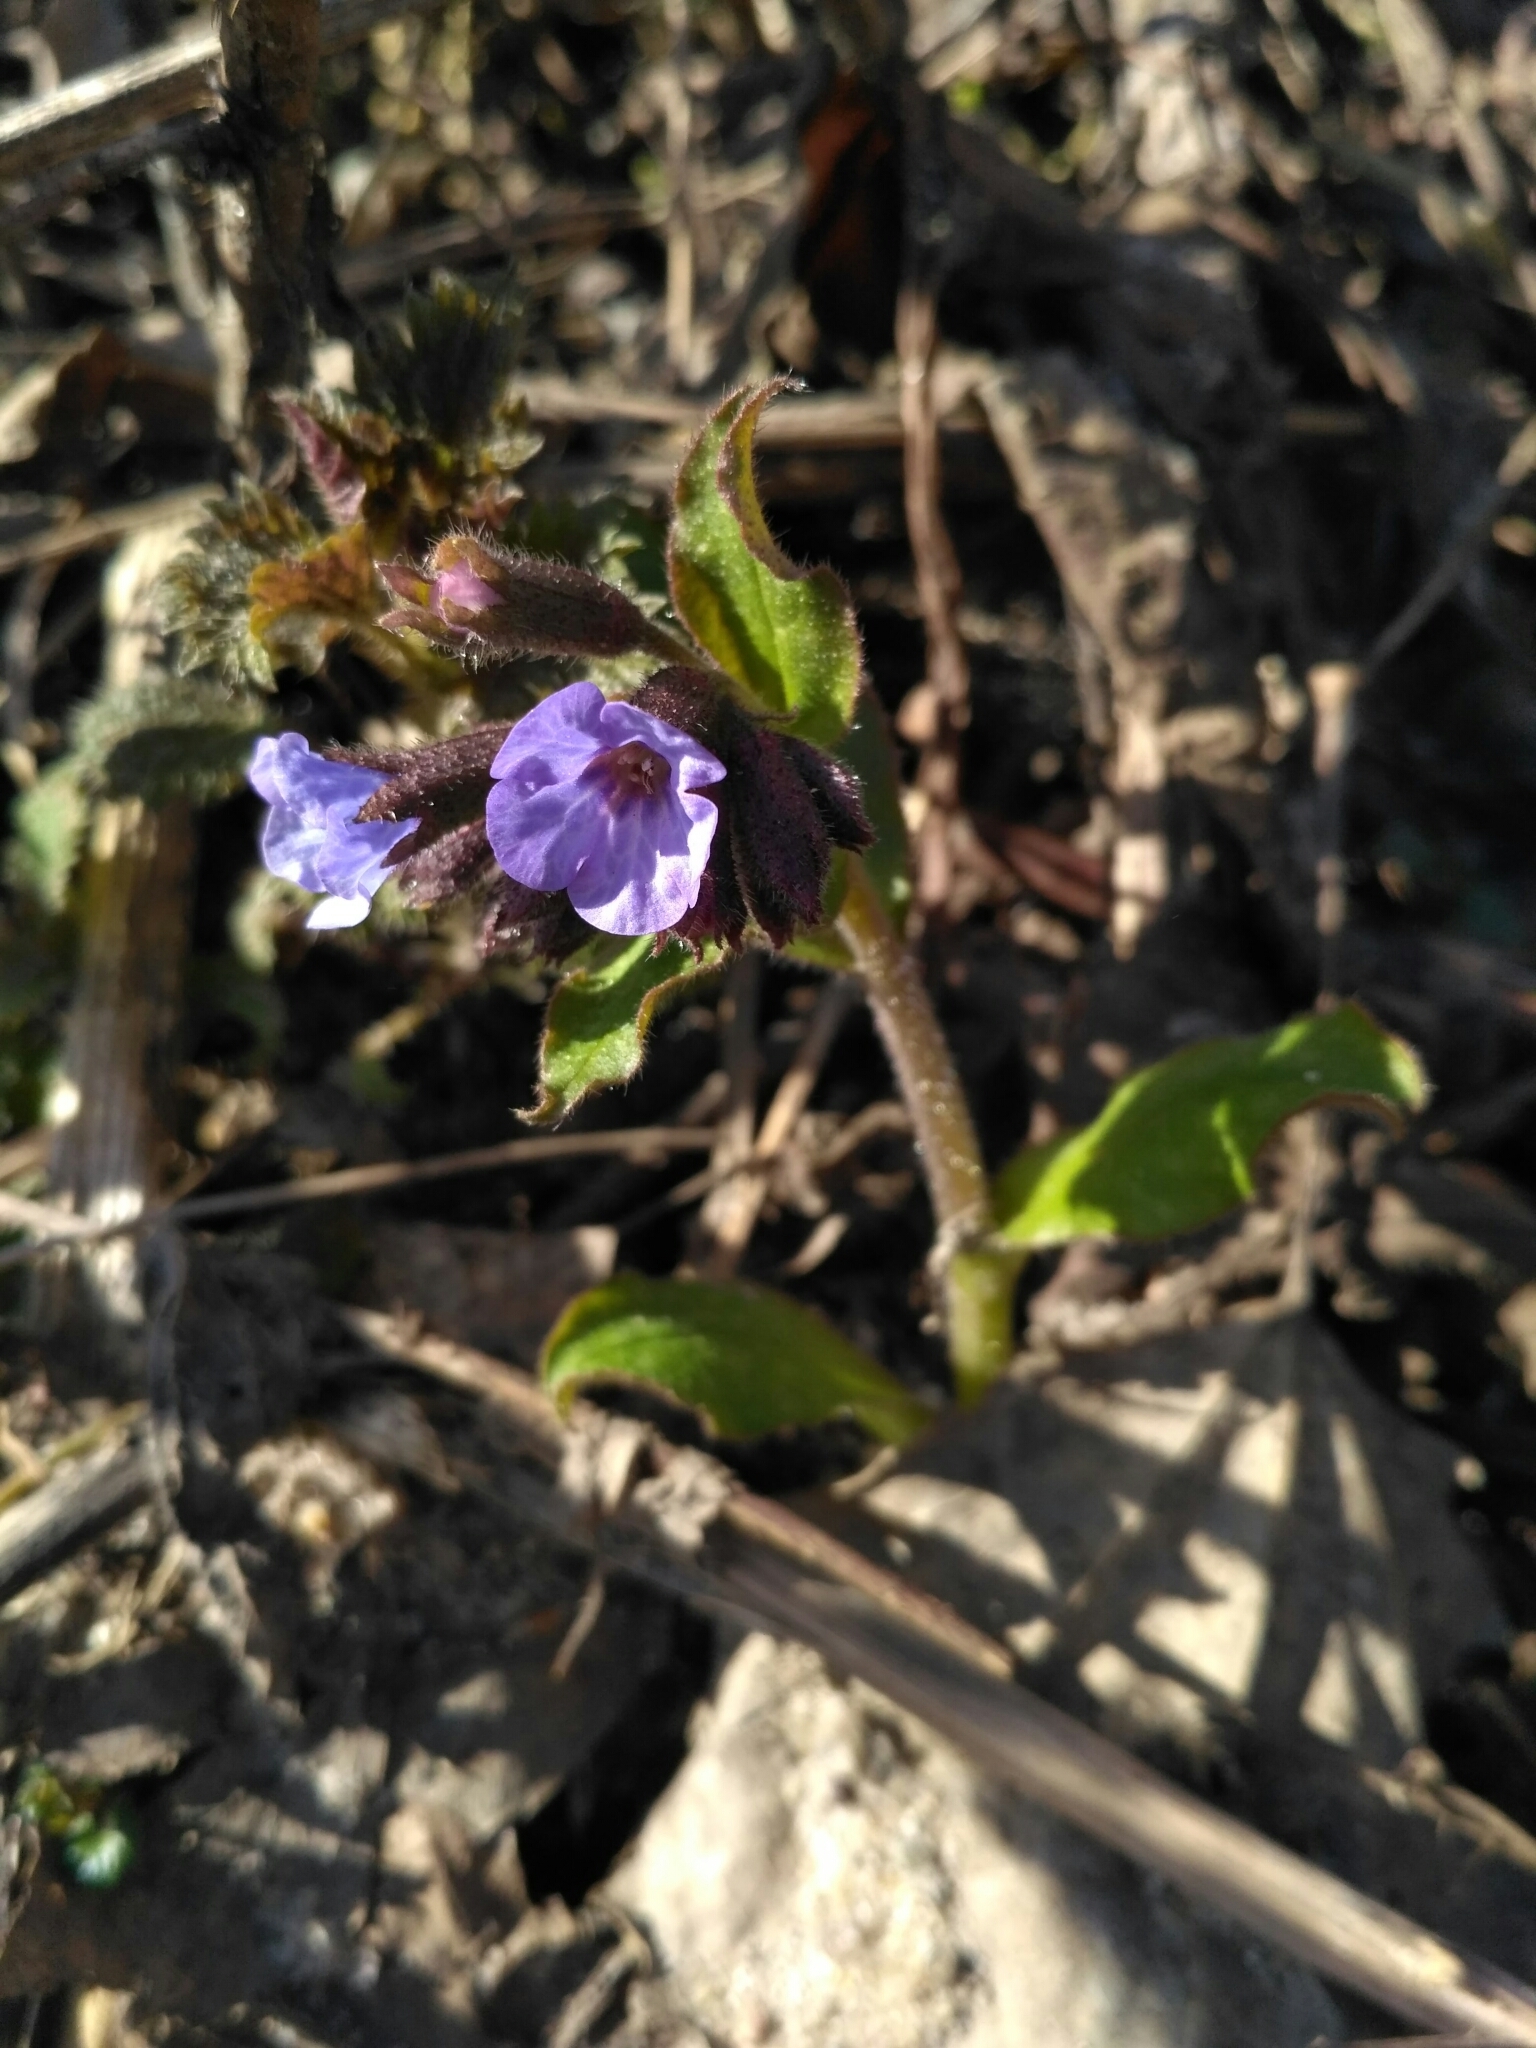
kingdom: Plantae
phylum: Tracheophyta
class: Magnoliopsida
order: Boraginales
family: Boraginaceae
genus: Pulmonaria
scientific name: Pulmonaria obscura
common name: Suffolk lungwort
